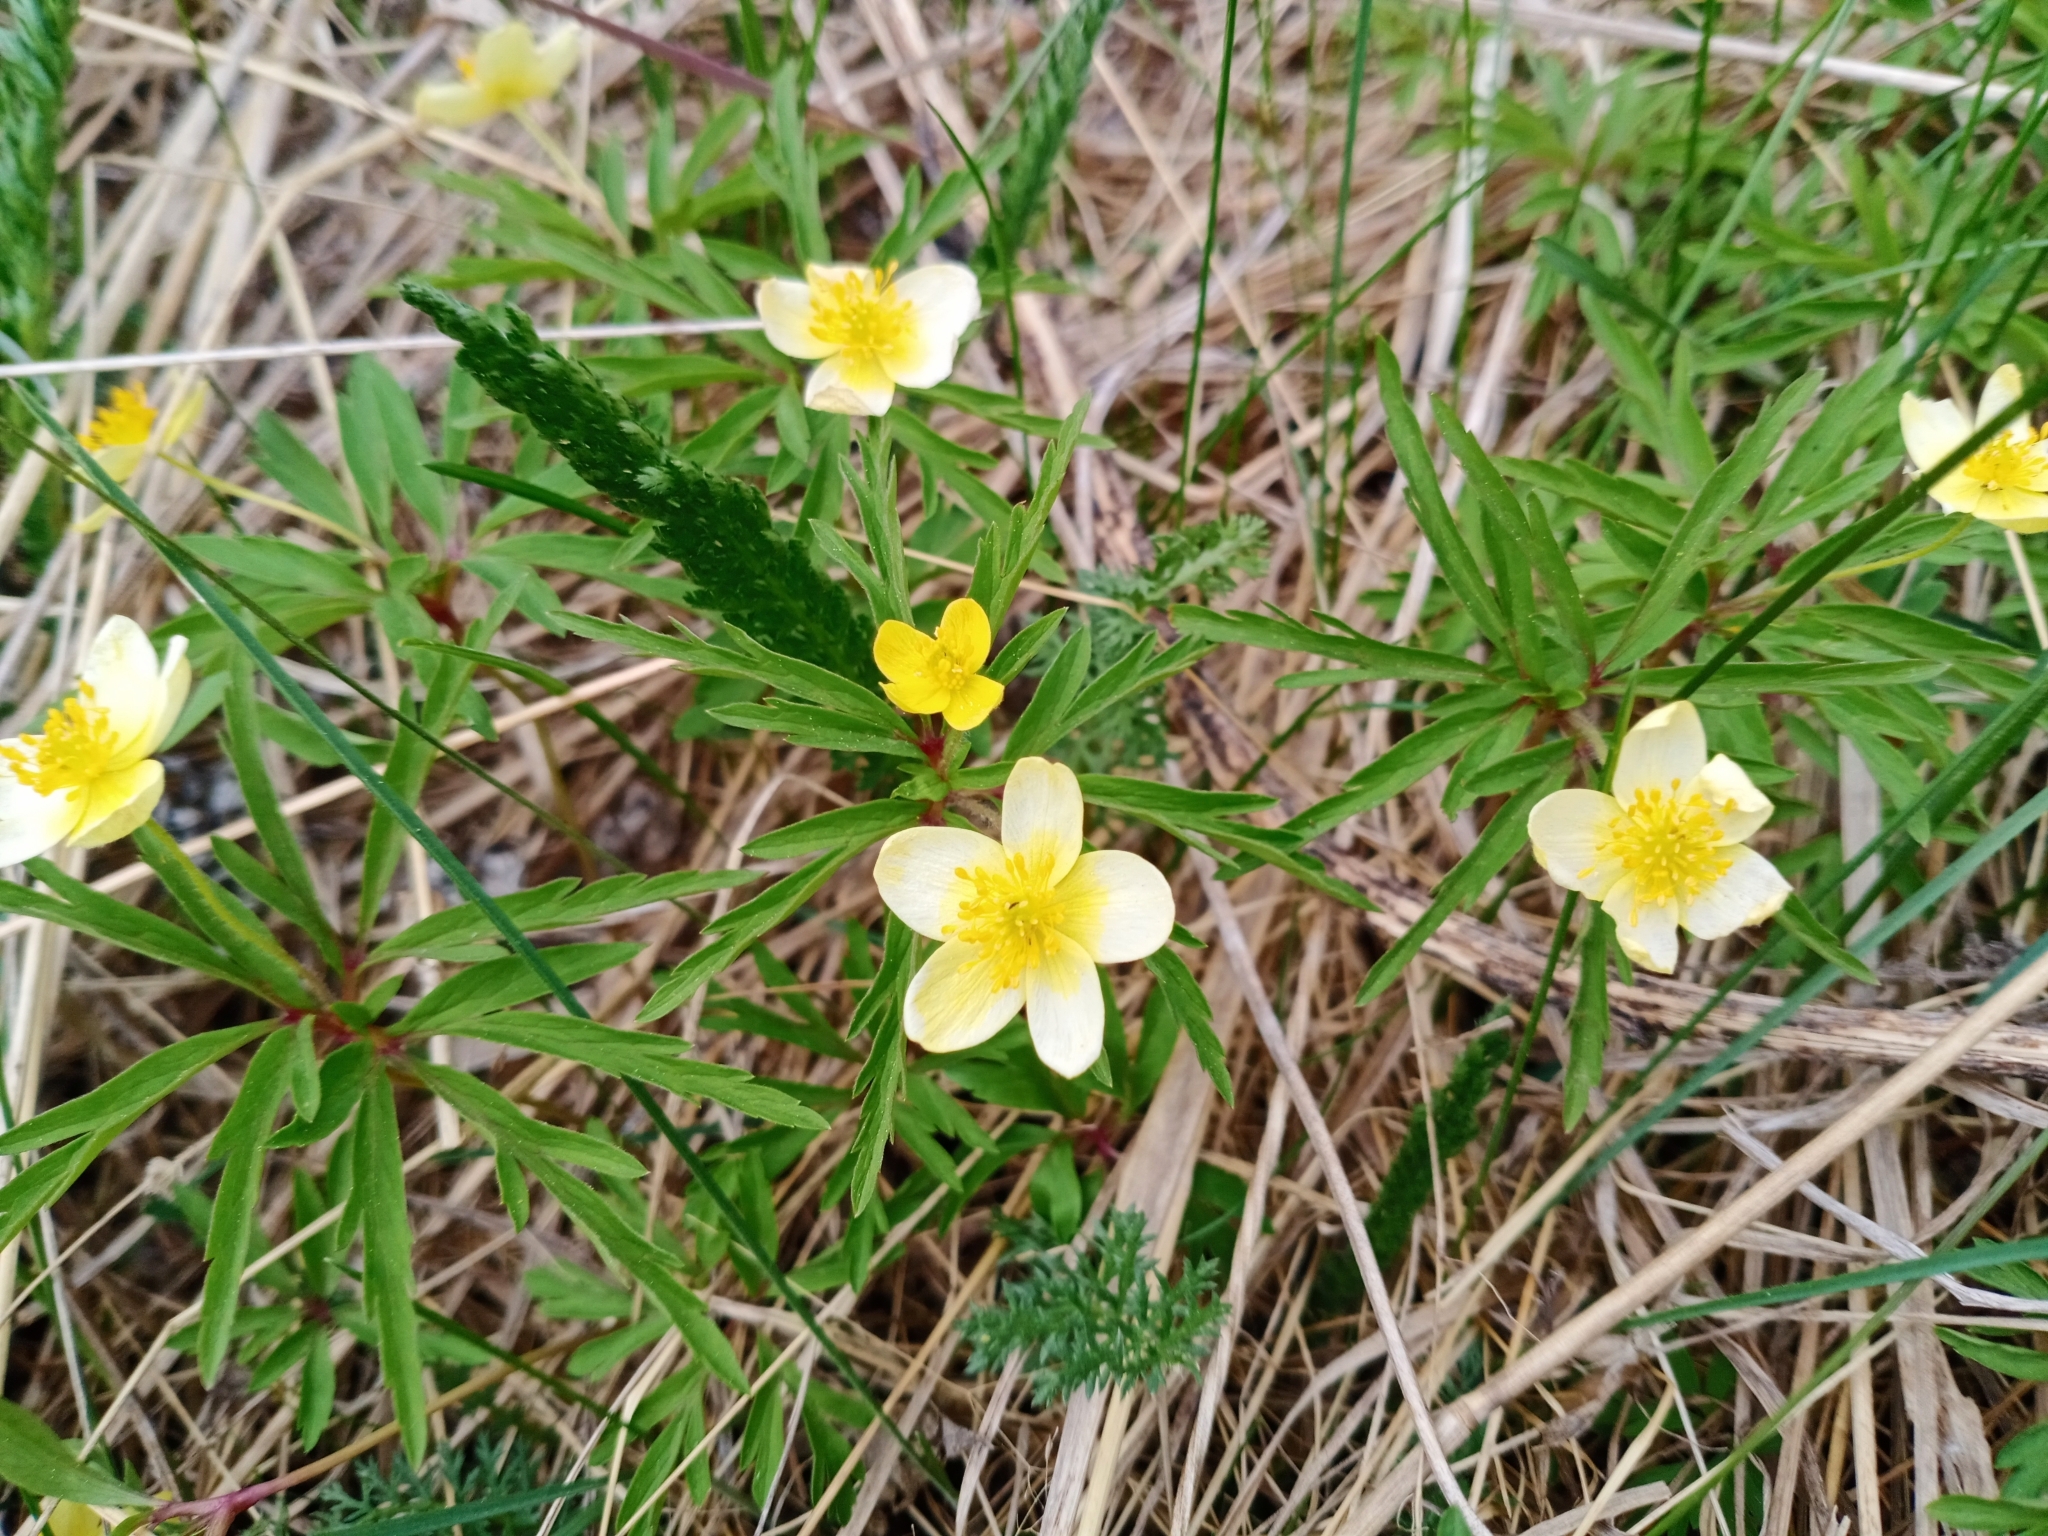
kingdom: Plantae
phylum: Tracheophyta
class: Magnoliopsida
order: Ranunculales
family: Ranunculaceae
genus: Anemone
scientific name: Anemone uralensis
